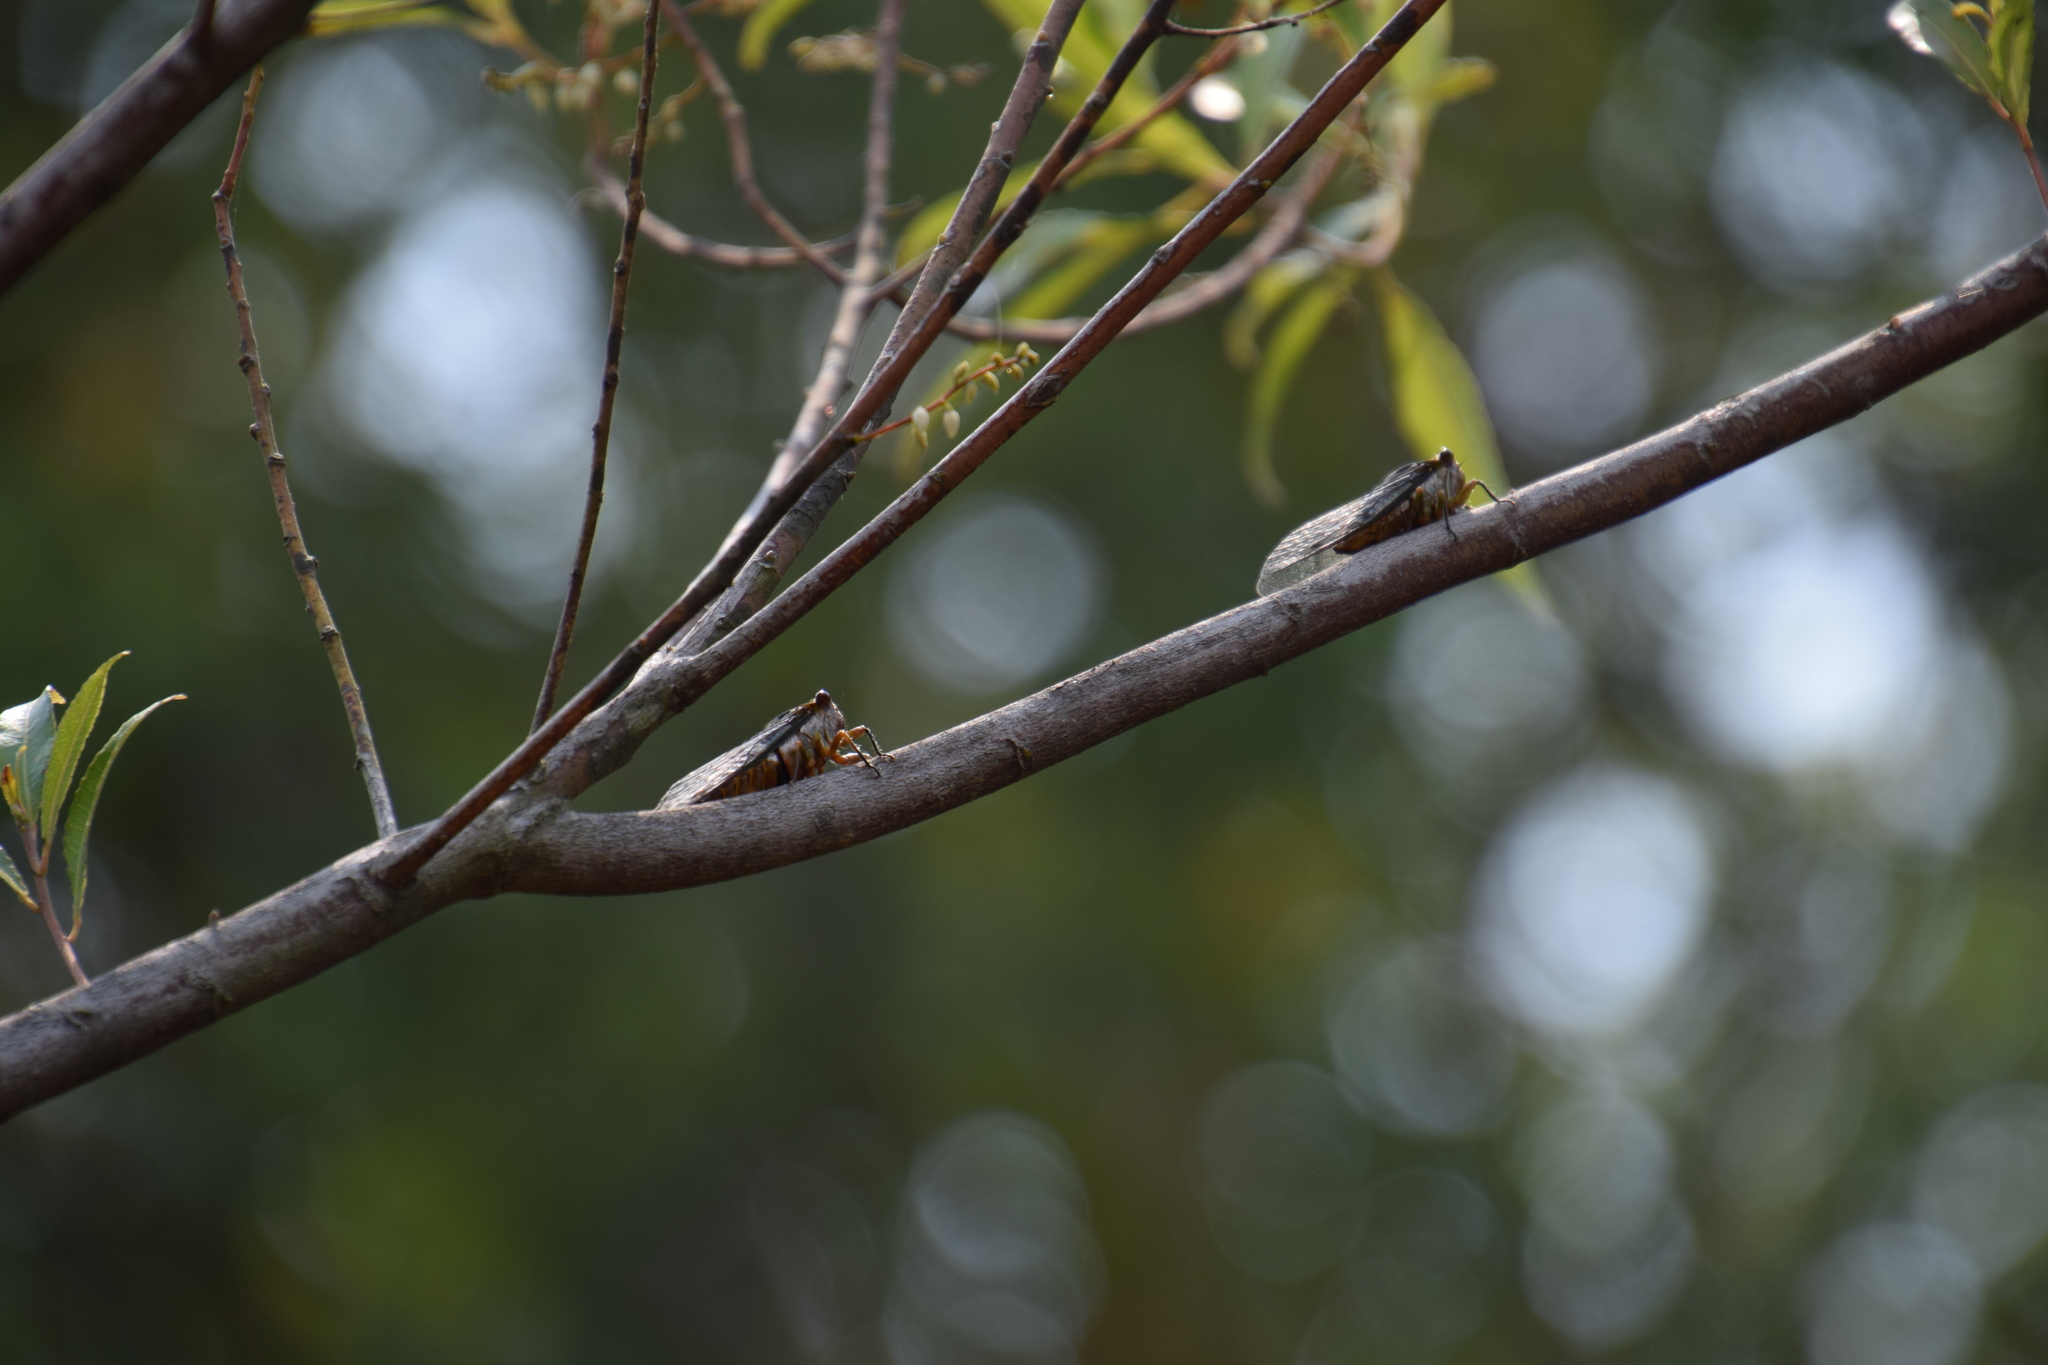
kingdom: Animalia
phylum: Arthropoda
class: Insecta
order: Hemiptera
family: Cicadidae
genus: Psaltoda
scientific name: Psaltoda plaga
